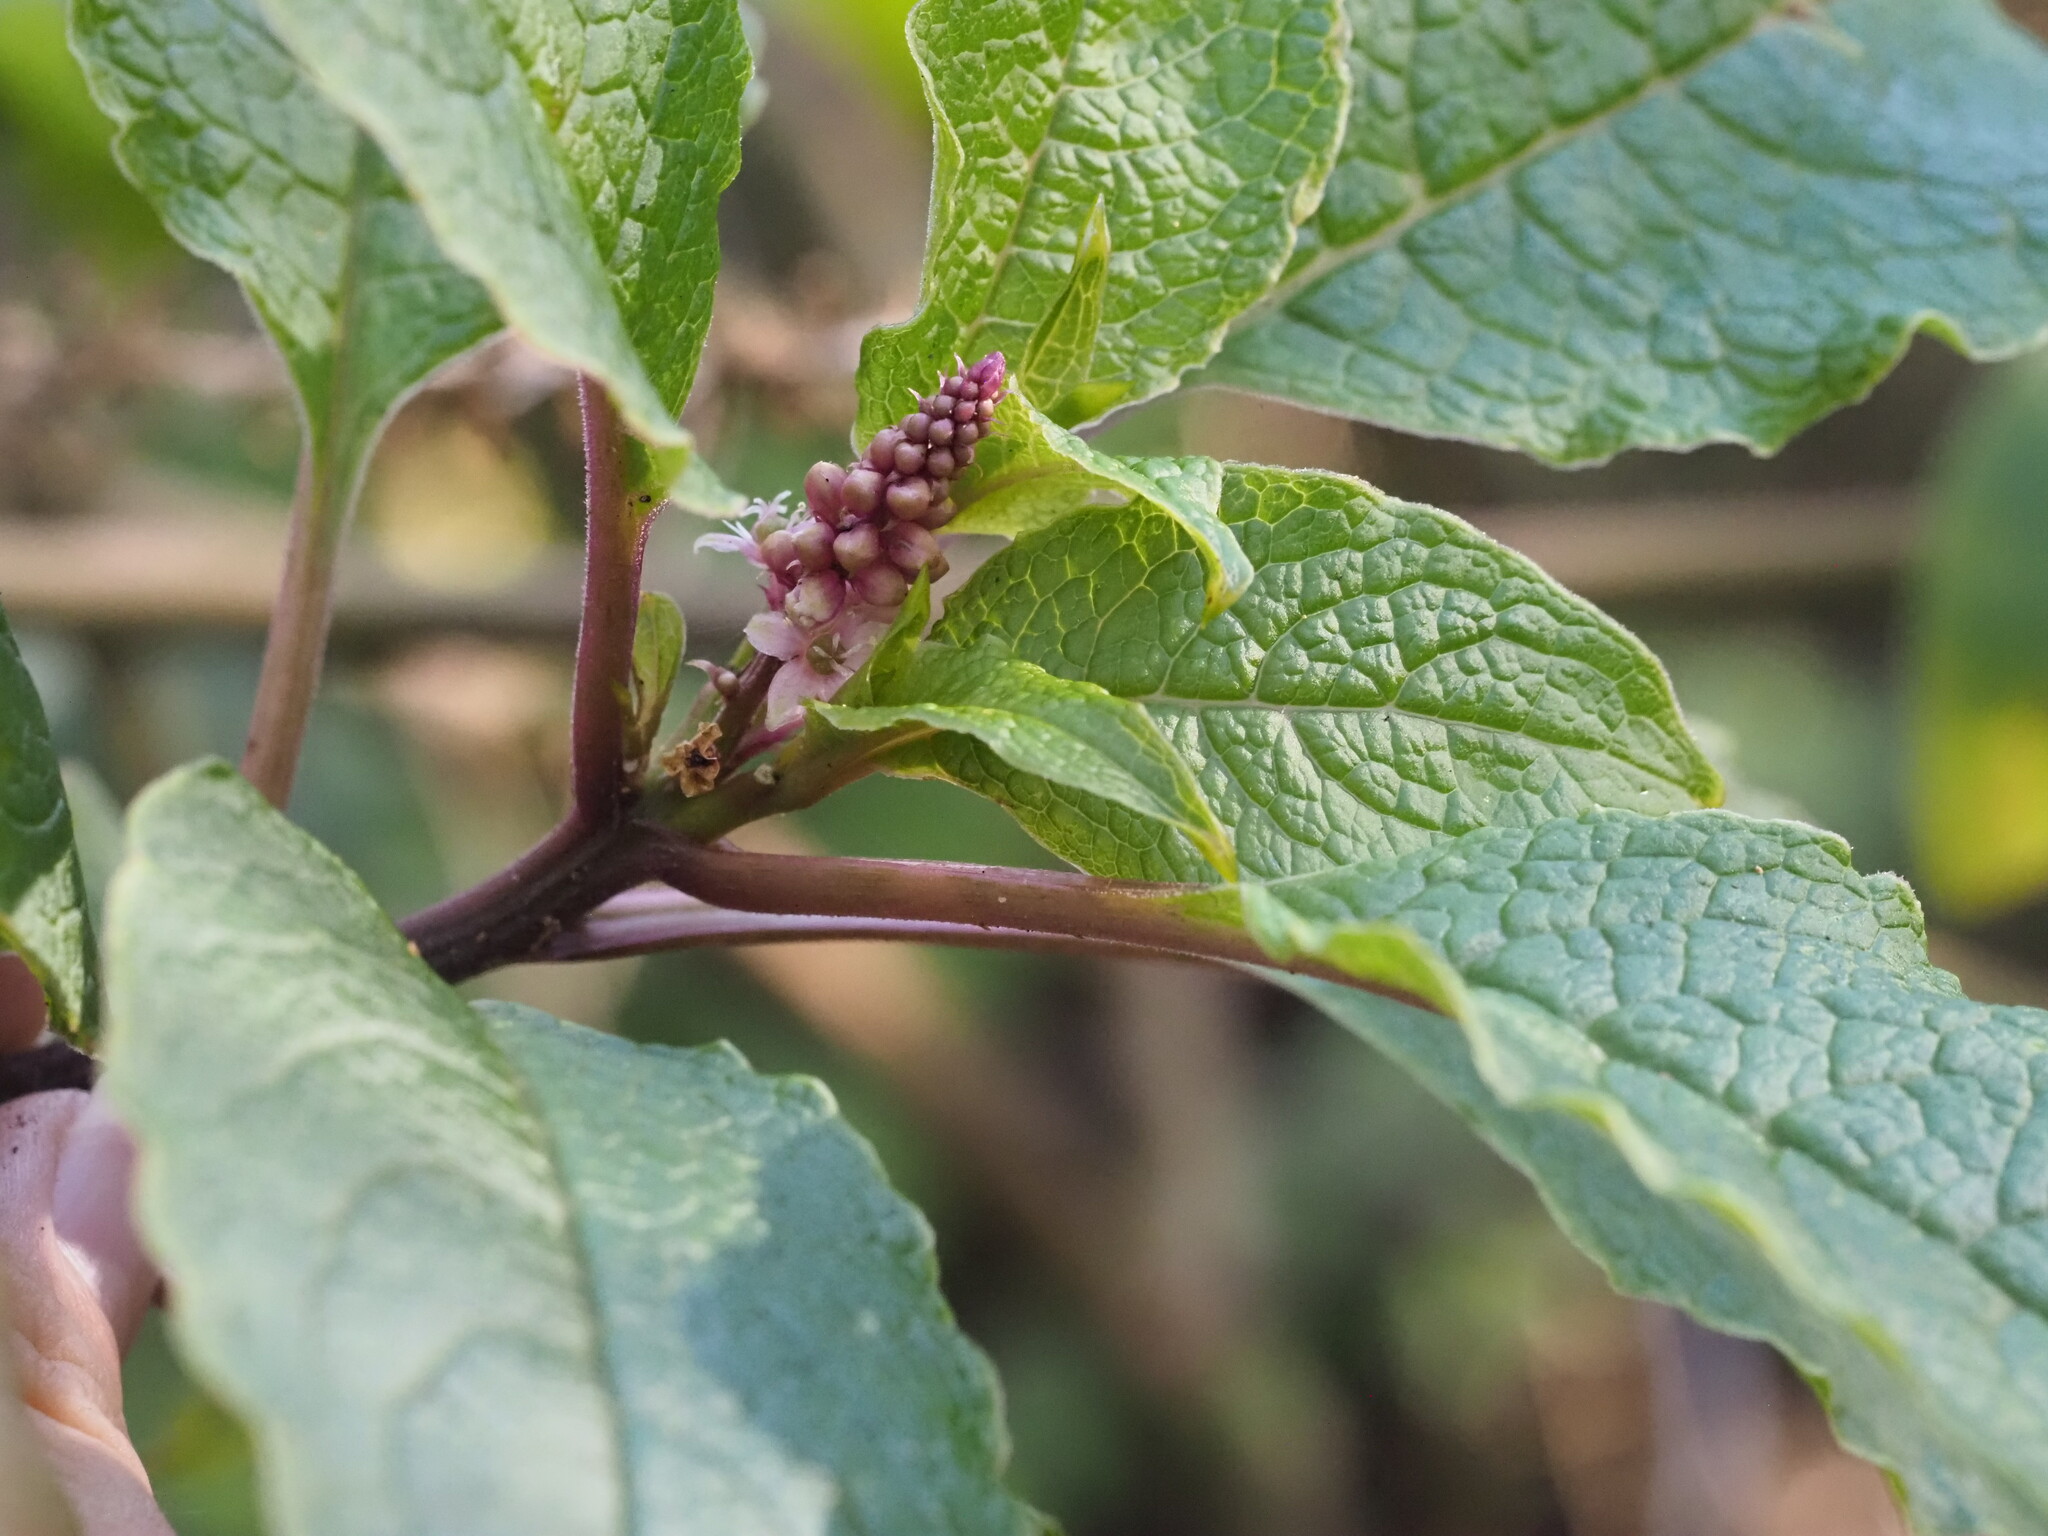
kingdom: Plantae
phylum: Tracheophyta
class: Magnoliopsida
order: Caryophyllales
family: Phytolaccaceae
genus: Phytolacca
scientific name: Phytolacca sandwicensis
